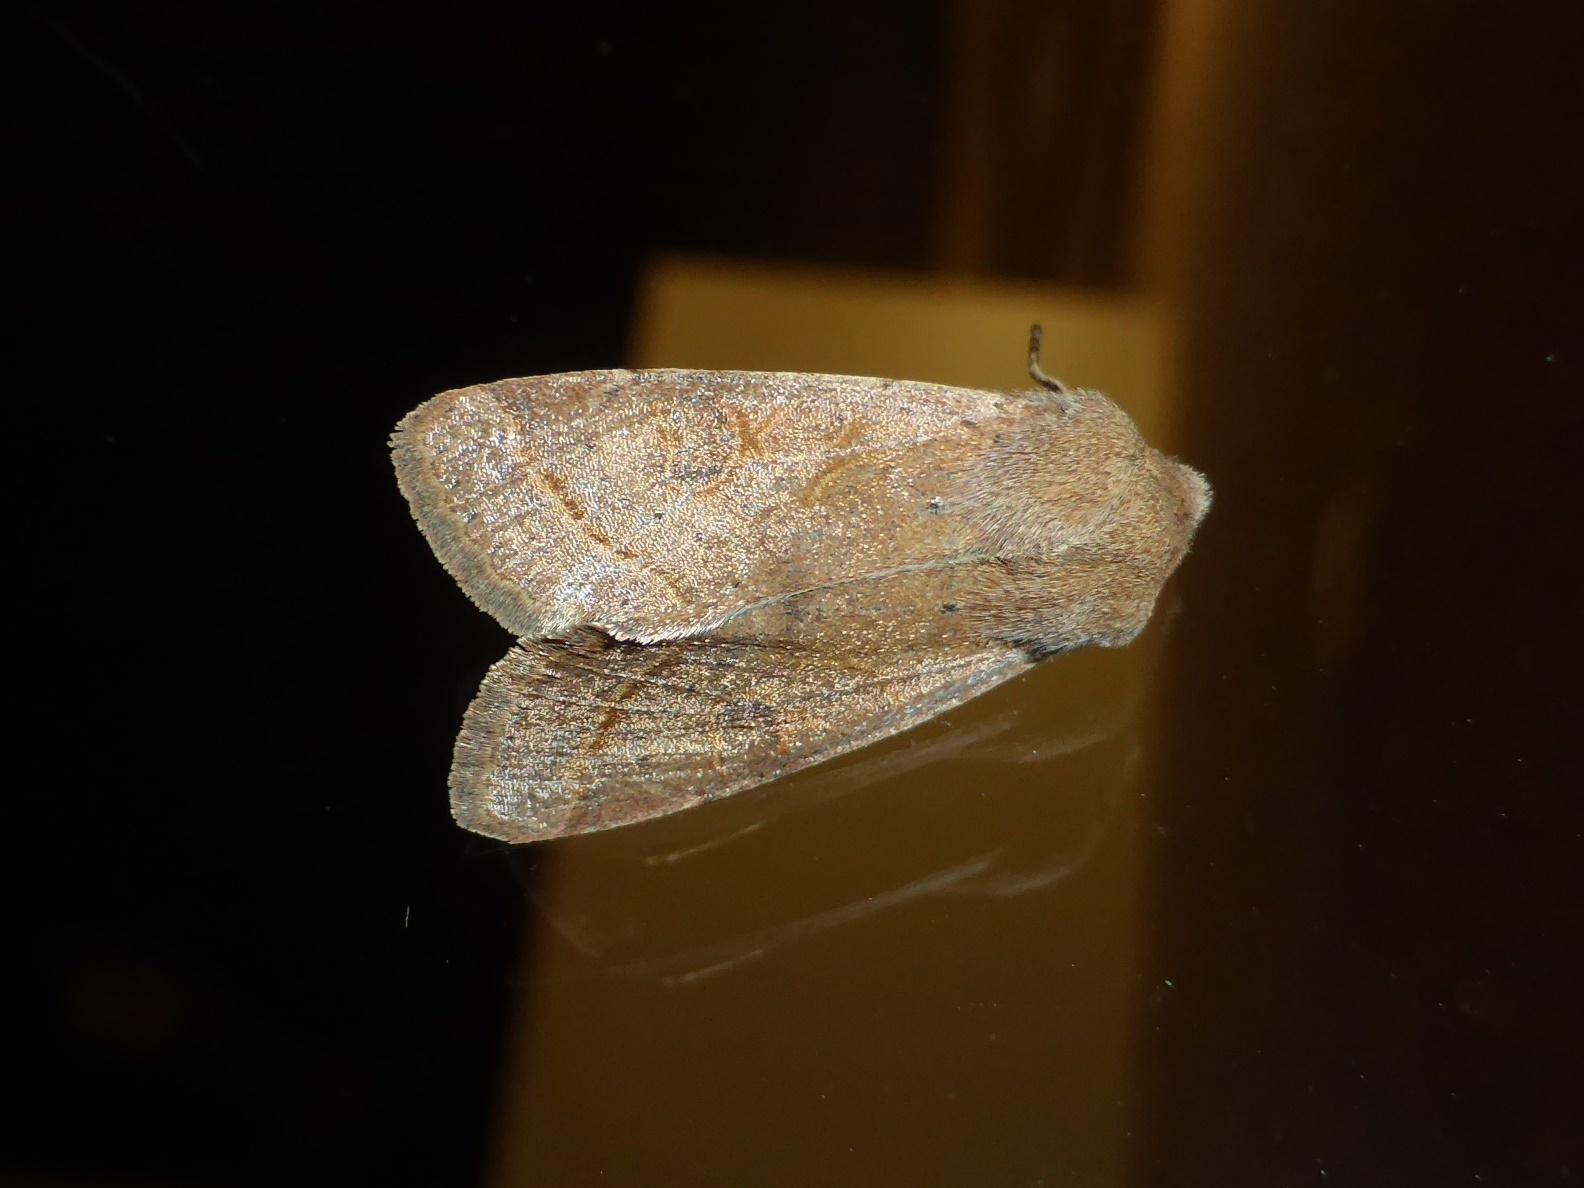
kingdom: Animalia
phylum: Arthropoda
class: Insecta
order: Lepidoptera
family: Noctuidae
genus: Orthosia
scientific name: Orthosia cerasi
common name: Common quaker
